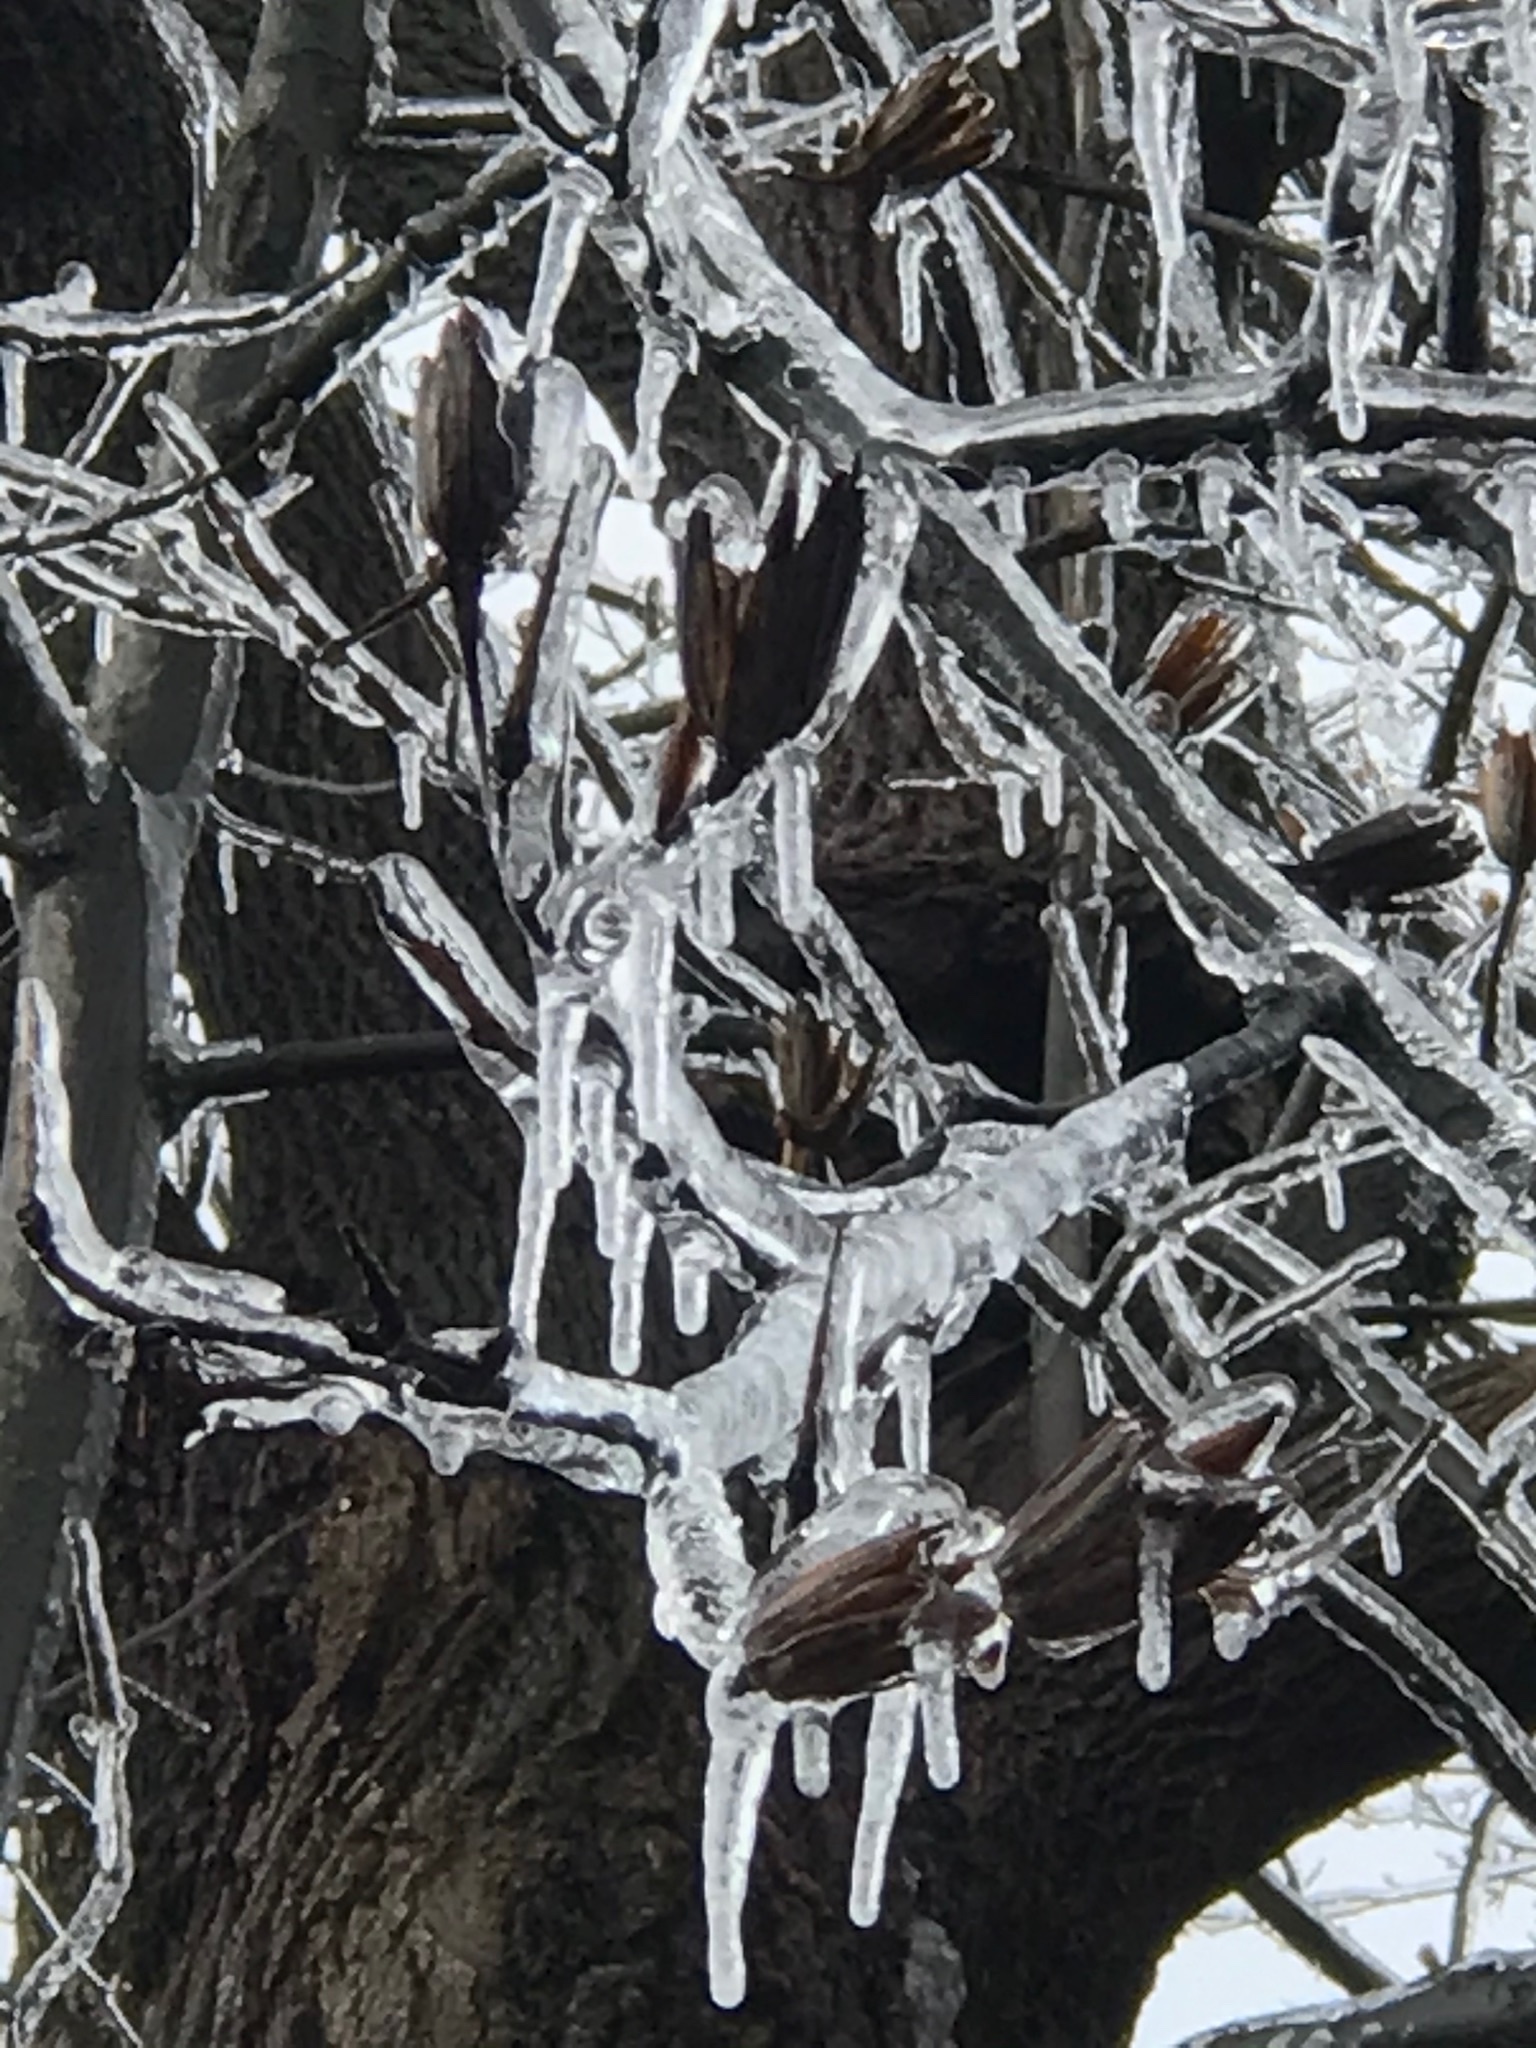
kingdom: Plantae
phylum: Tracheophyta
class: Magnoliopsida
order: Magnoliales
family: Magnoliaceae
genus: Liriodendron
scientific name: Liriodendron tulipifera
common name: Tulip tree
